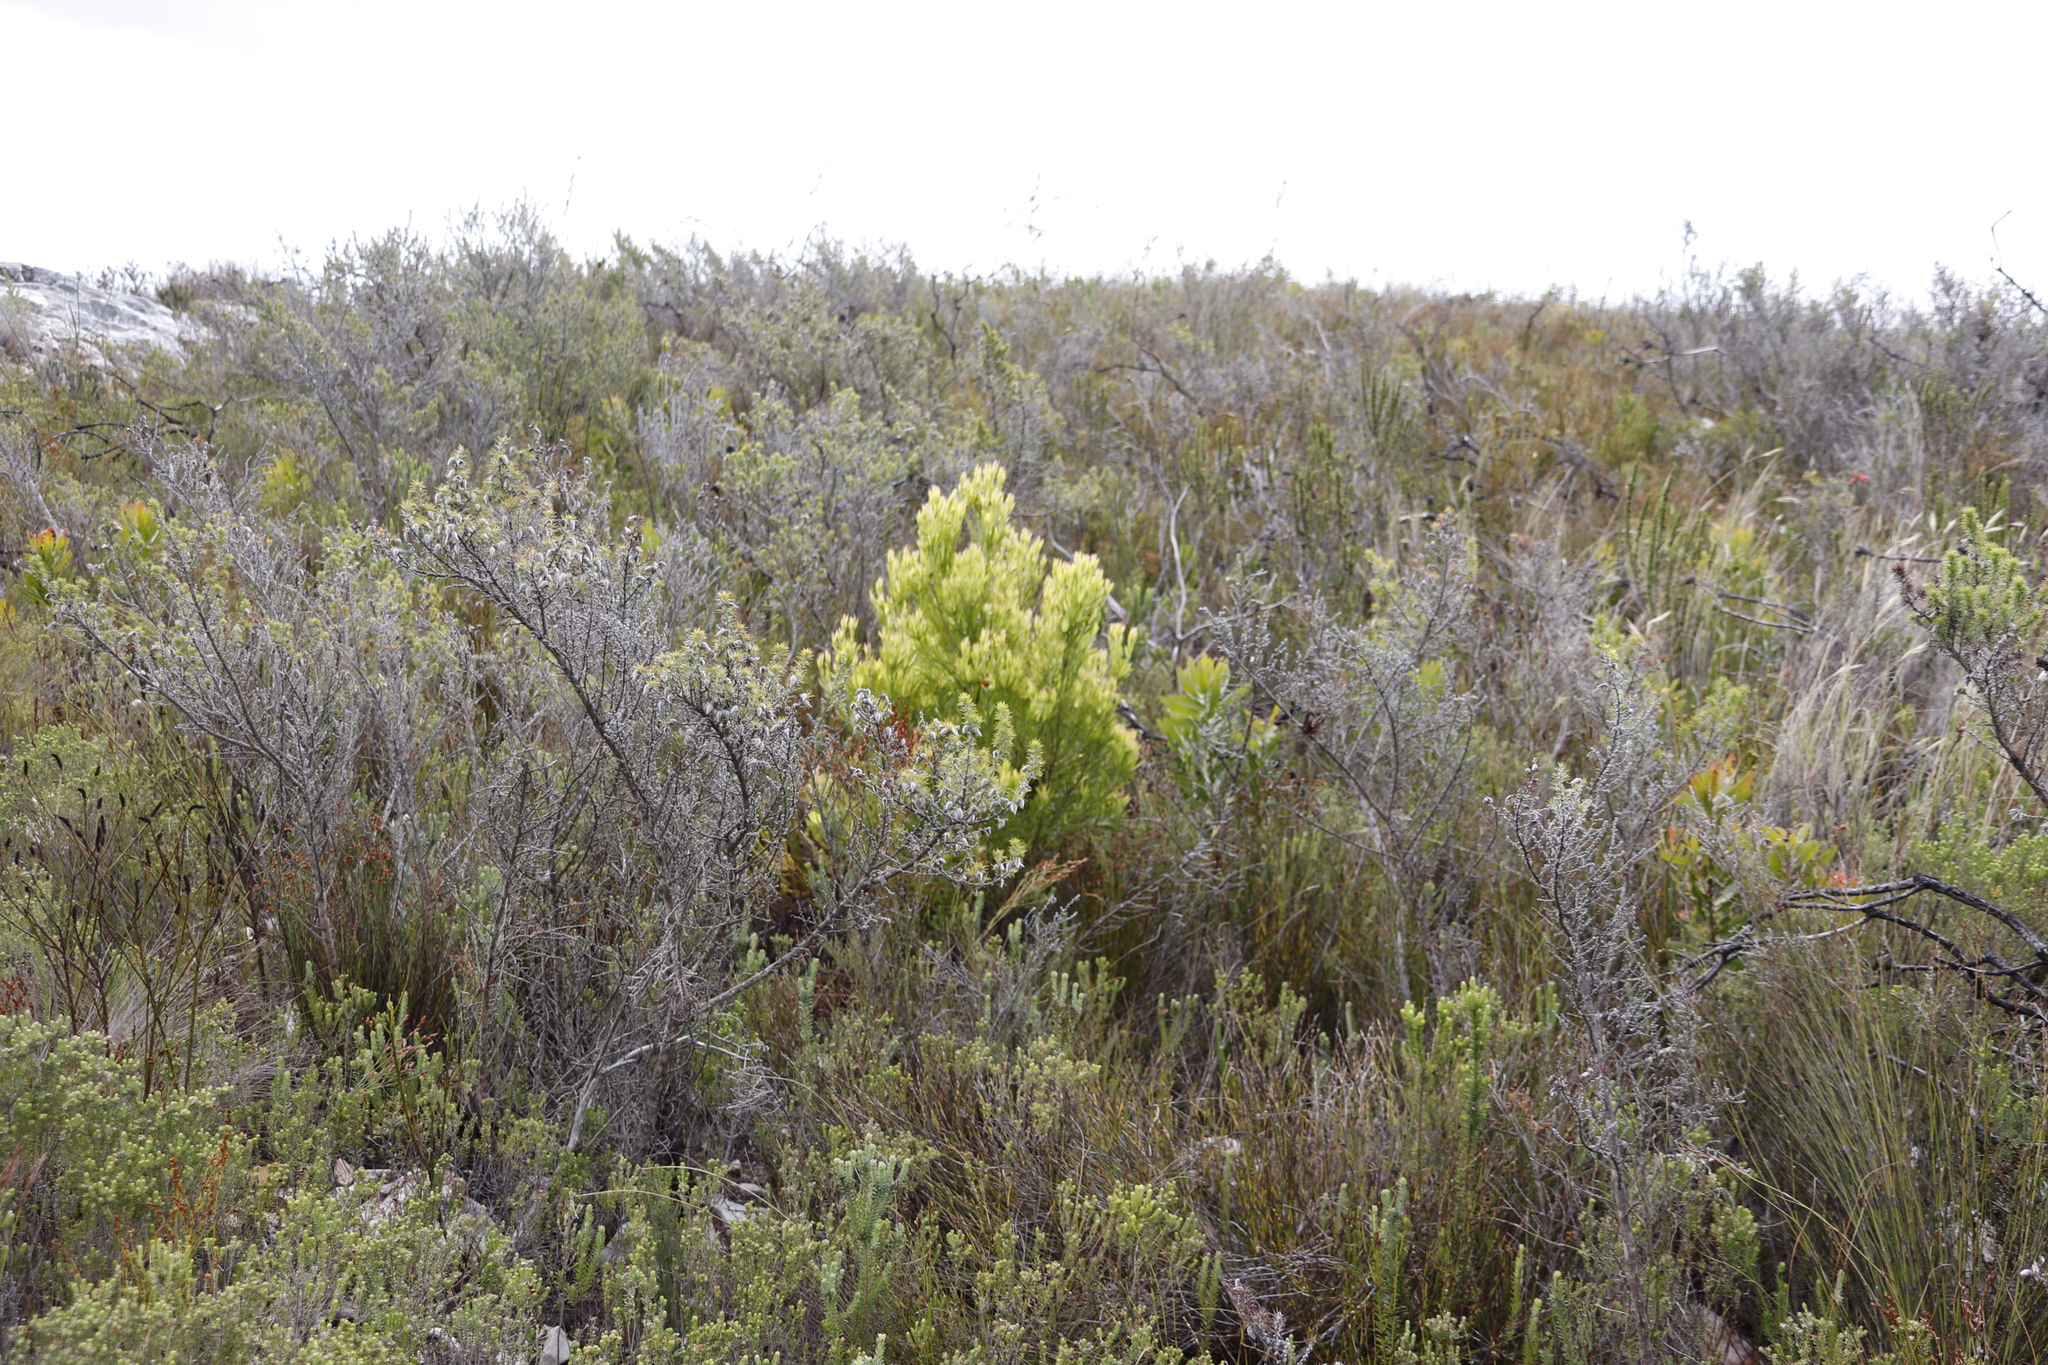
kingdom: Plantae
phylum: Tracheophyta
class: Magnoliopsida
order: Proteales
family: Proteaceae
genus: Leucadendron
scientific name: Leucadendron xanthoconus
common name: Sickle-leaf conebush
